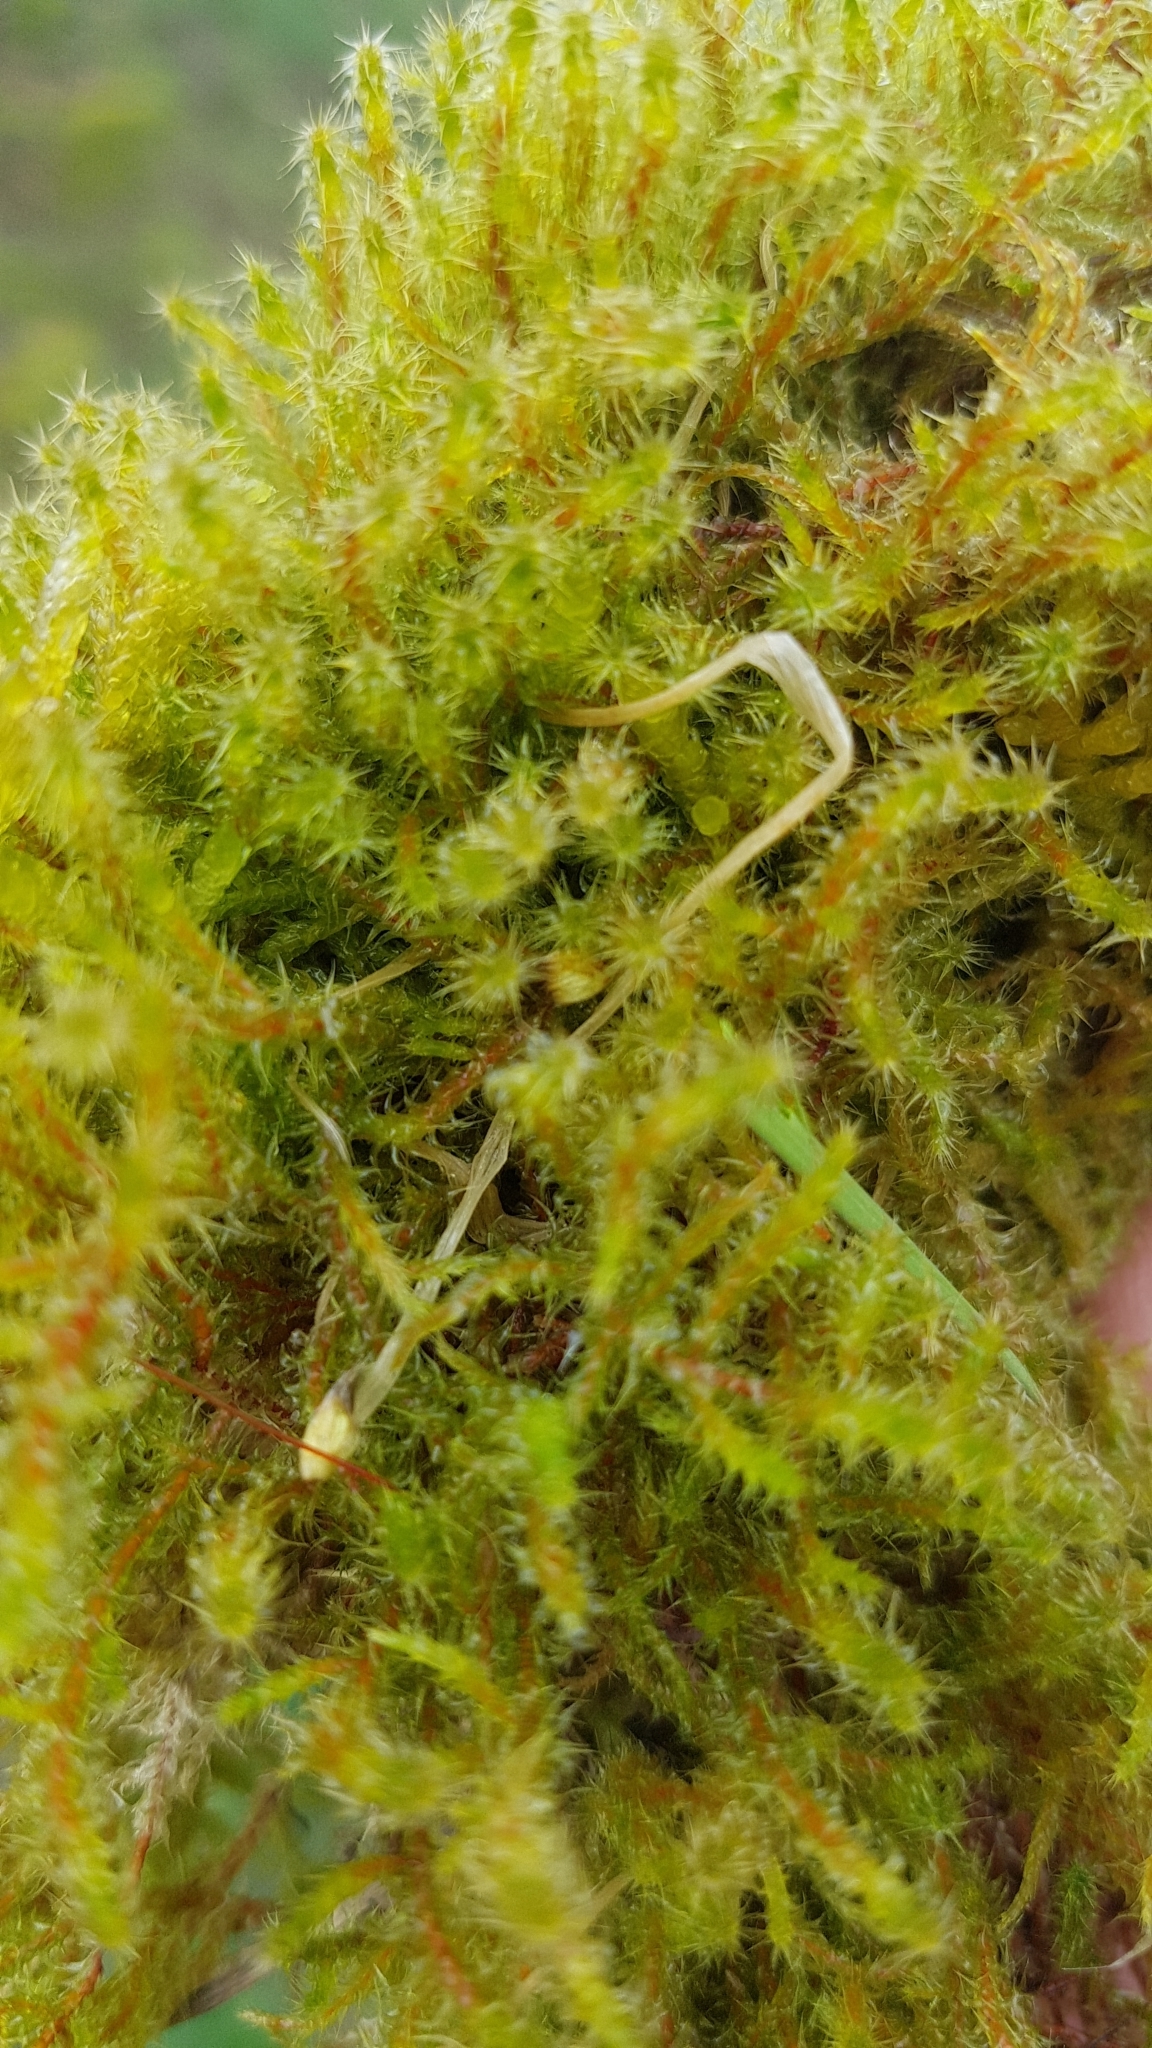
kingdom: Plantae
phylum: Bryophyta
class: Bryopsida
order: Hypnales
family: Hylocomiaceae
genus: Rhytidiadelphus
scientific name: Rhytidiadelphus squarrosus
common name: Springy turf-moss
